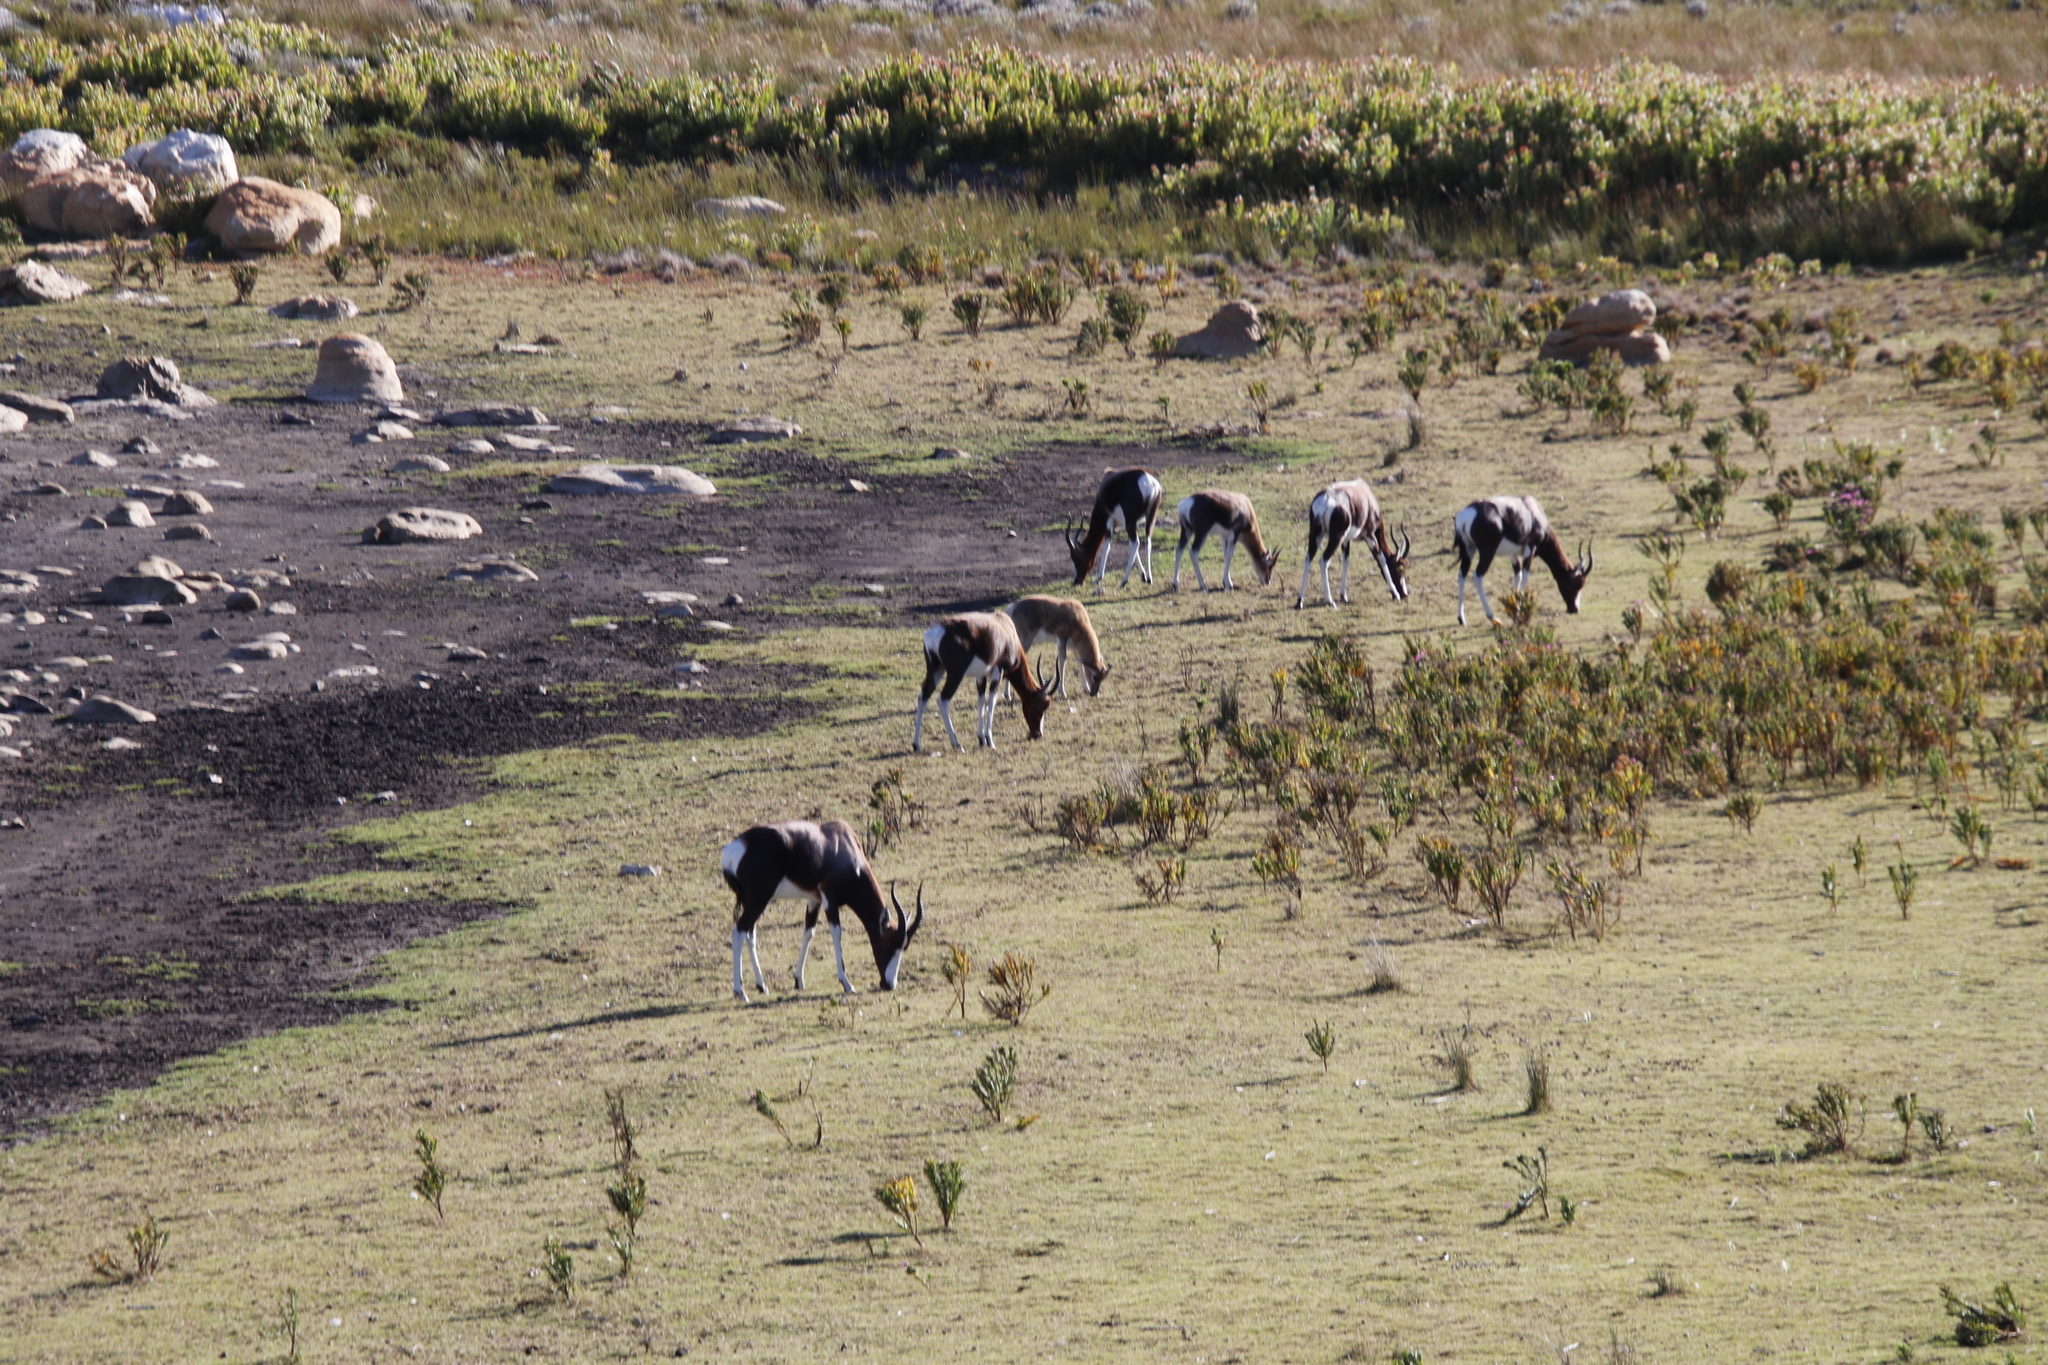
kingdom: Animalia
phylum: Chordata
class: Mammalia
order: Artiodactyla
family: Bovidae
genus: Damaliscus
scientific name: Damaliscus pygargus
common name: Bontebok
